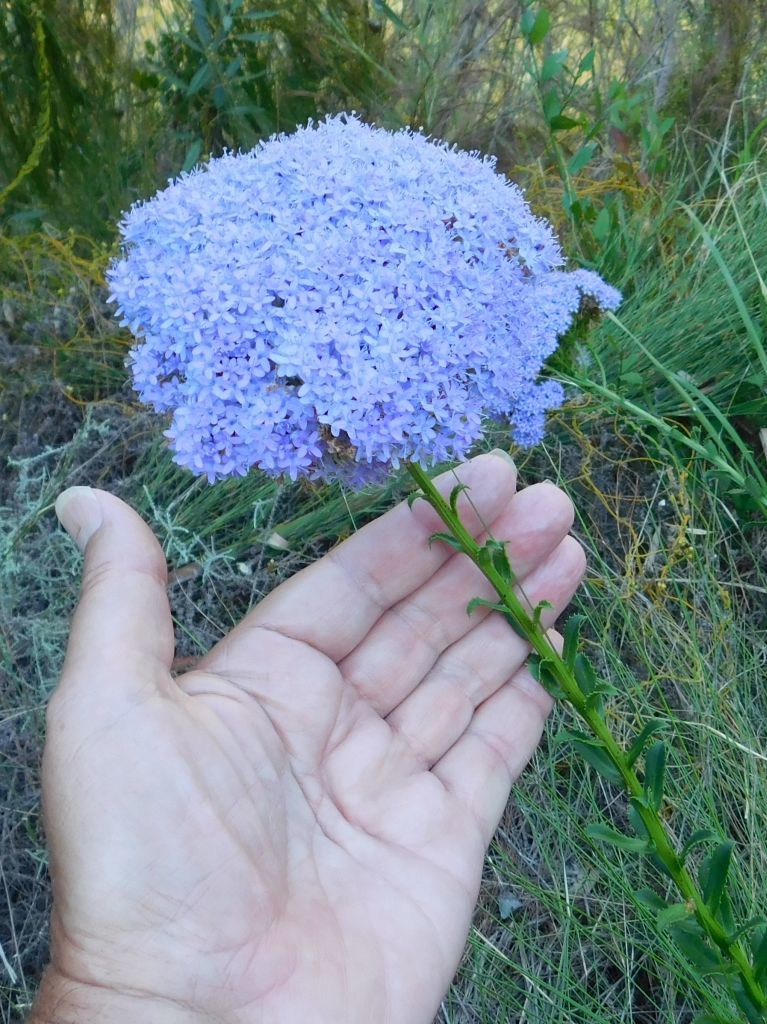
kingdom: Plantae
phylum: Tracheophyta
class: Magnoliopsida
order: Lamiales
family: Scrophulariaceae
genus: Pseudoselago
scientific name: Pseudoselago serrata
